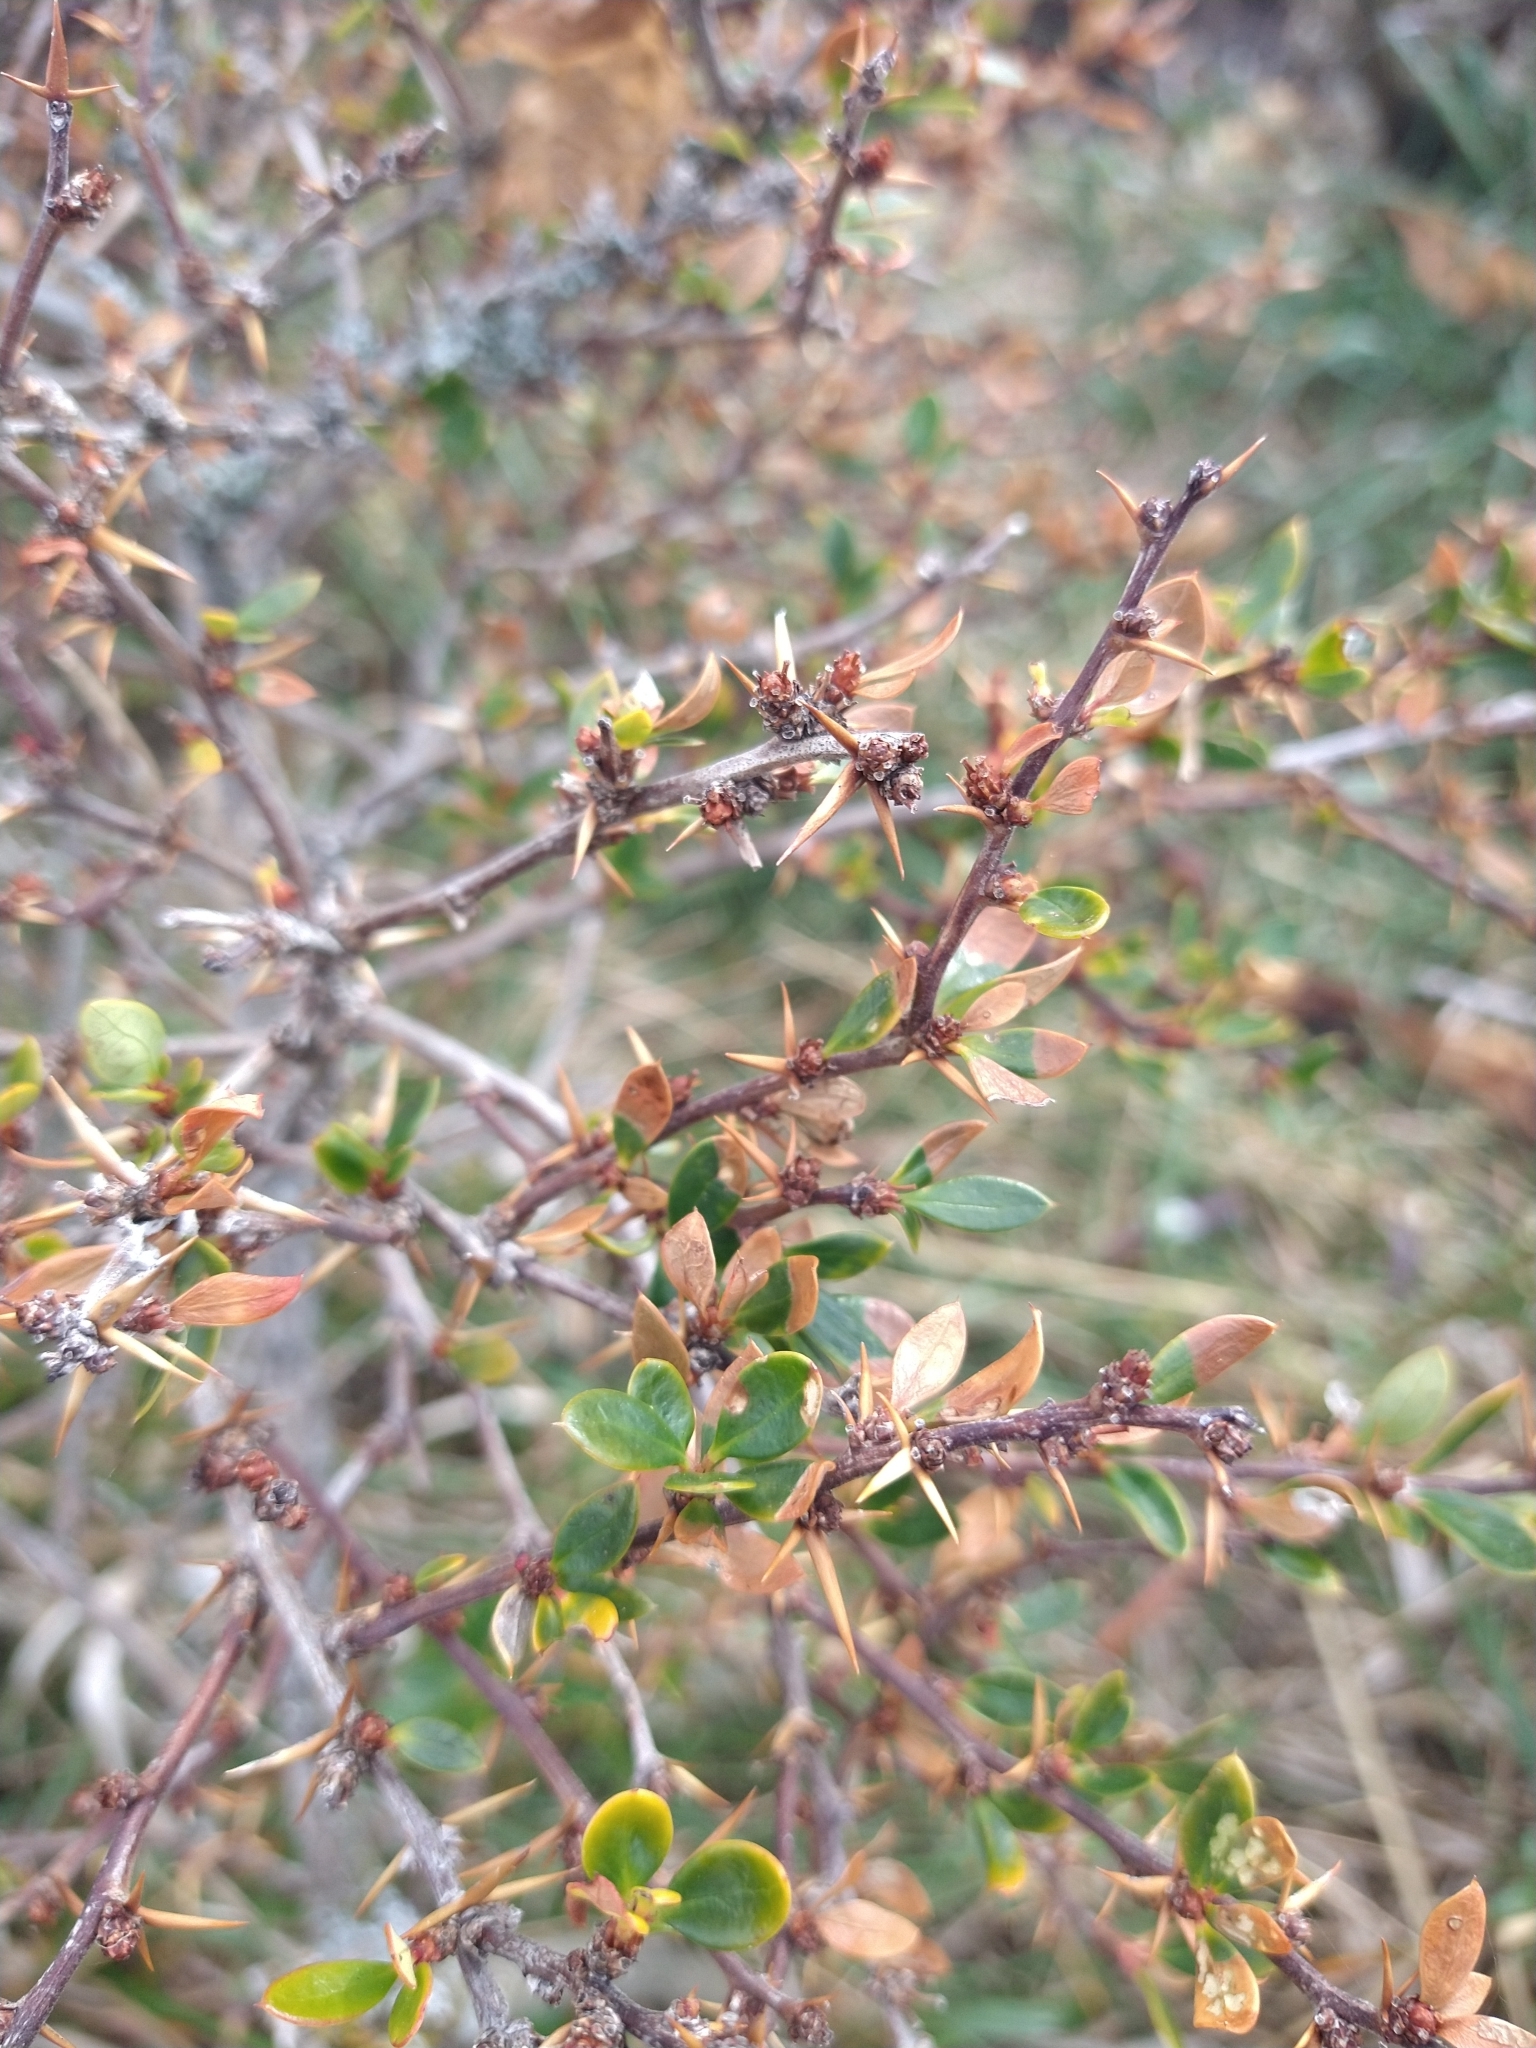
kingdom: Plantae
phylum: Tracheophyta
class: Magnoliopsida
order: Ranunculales
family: Berberidaceae
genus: Berberis
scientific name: Berberis microphylla
